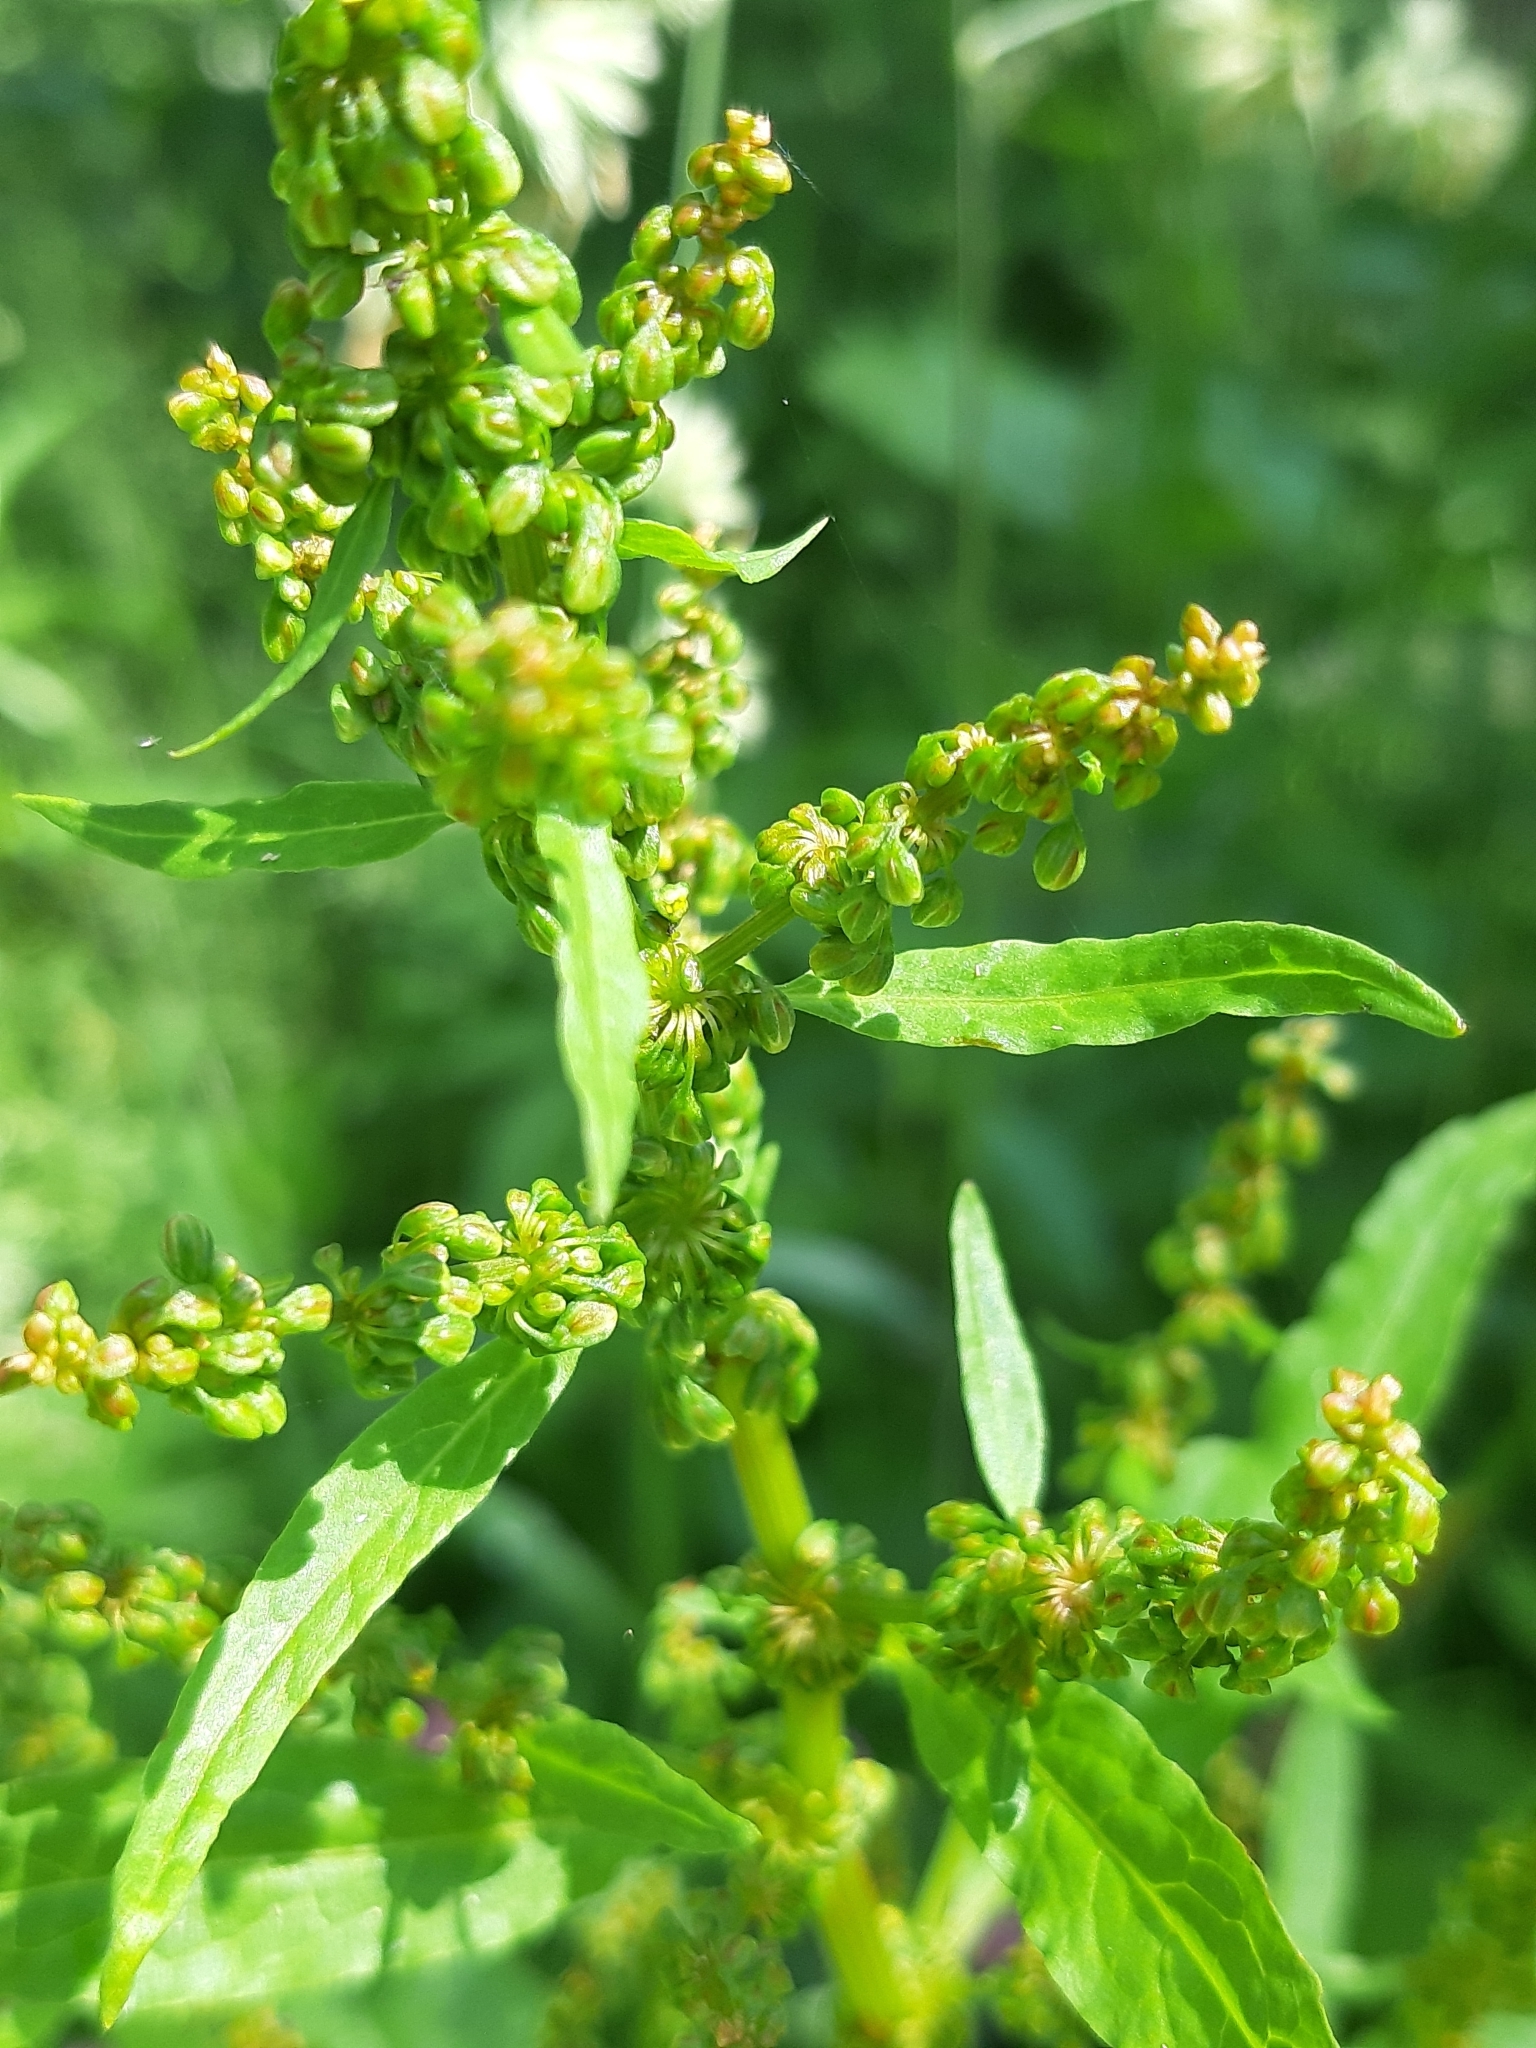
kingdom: Plantae
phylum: Tracheophyta
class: Magnoliopsida
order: Caryophyllales
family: Polygonaceae
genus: Rumex
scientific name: Rumex obtusifolius
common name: Bitter dock
